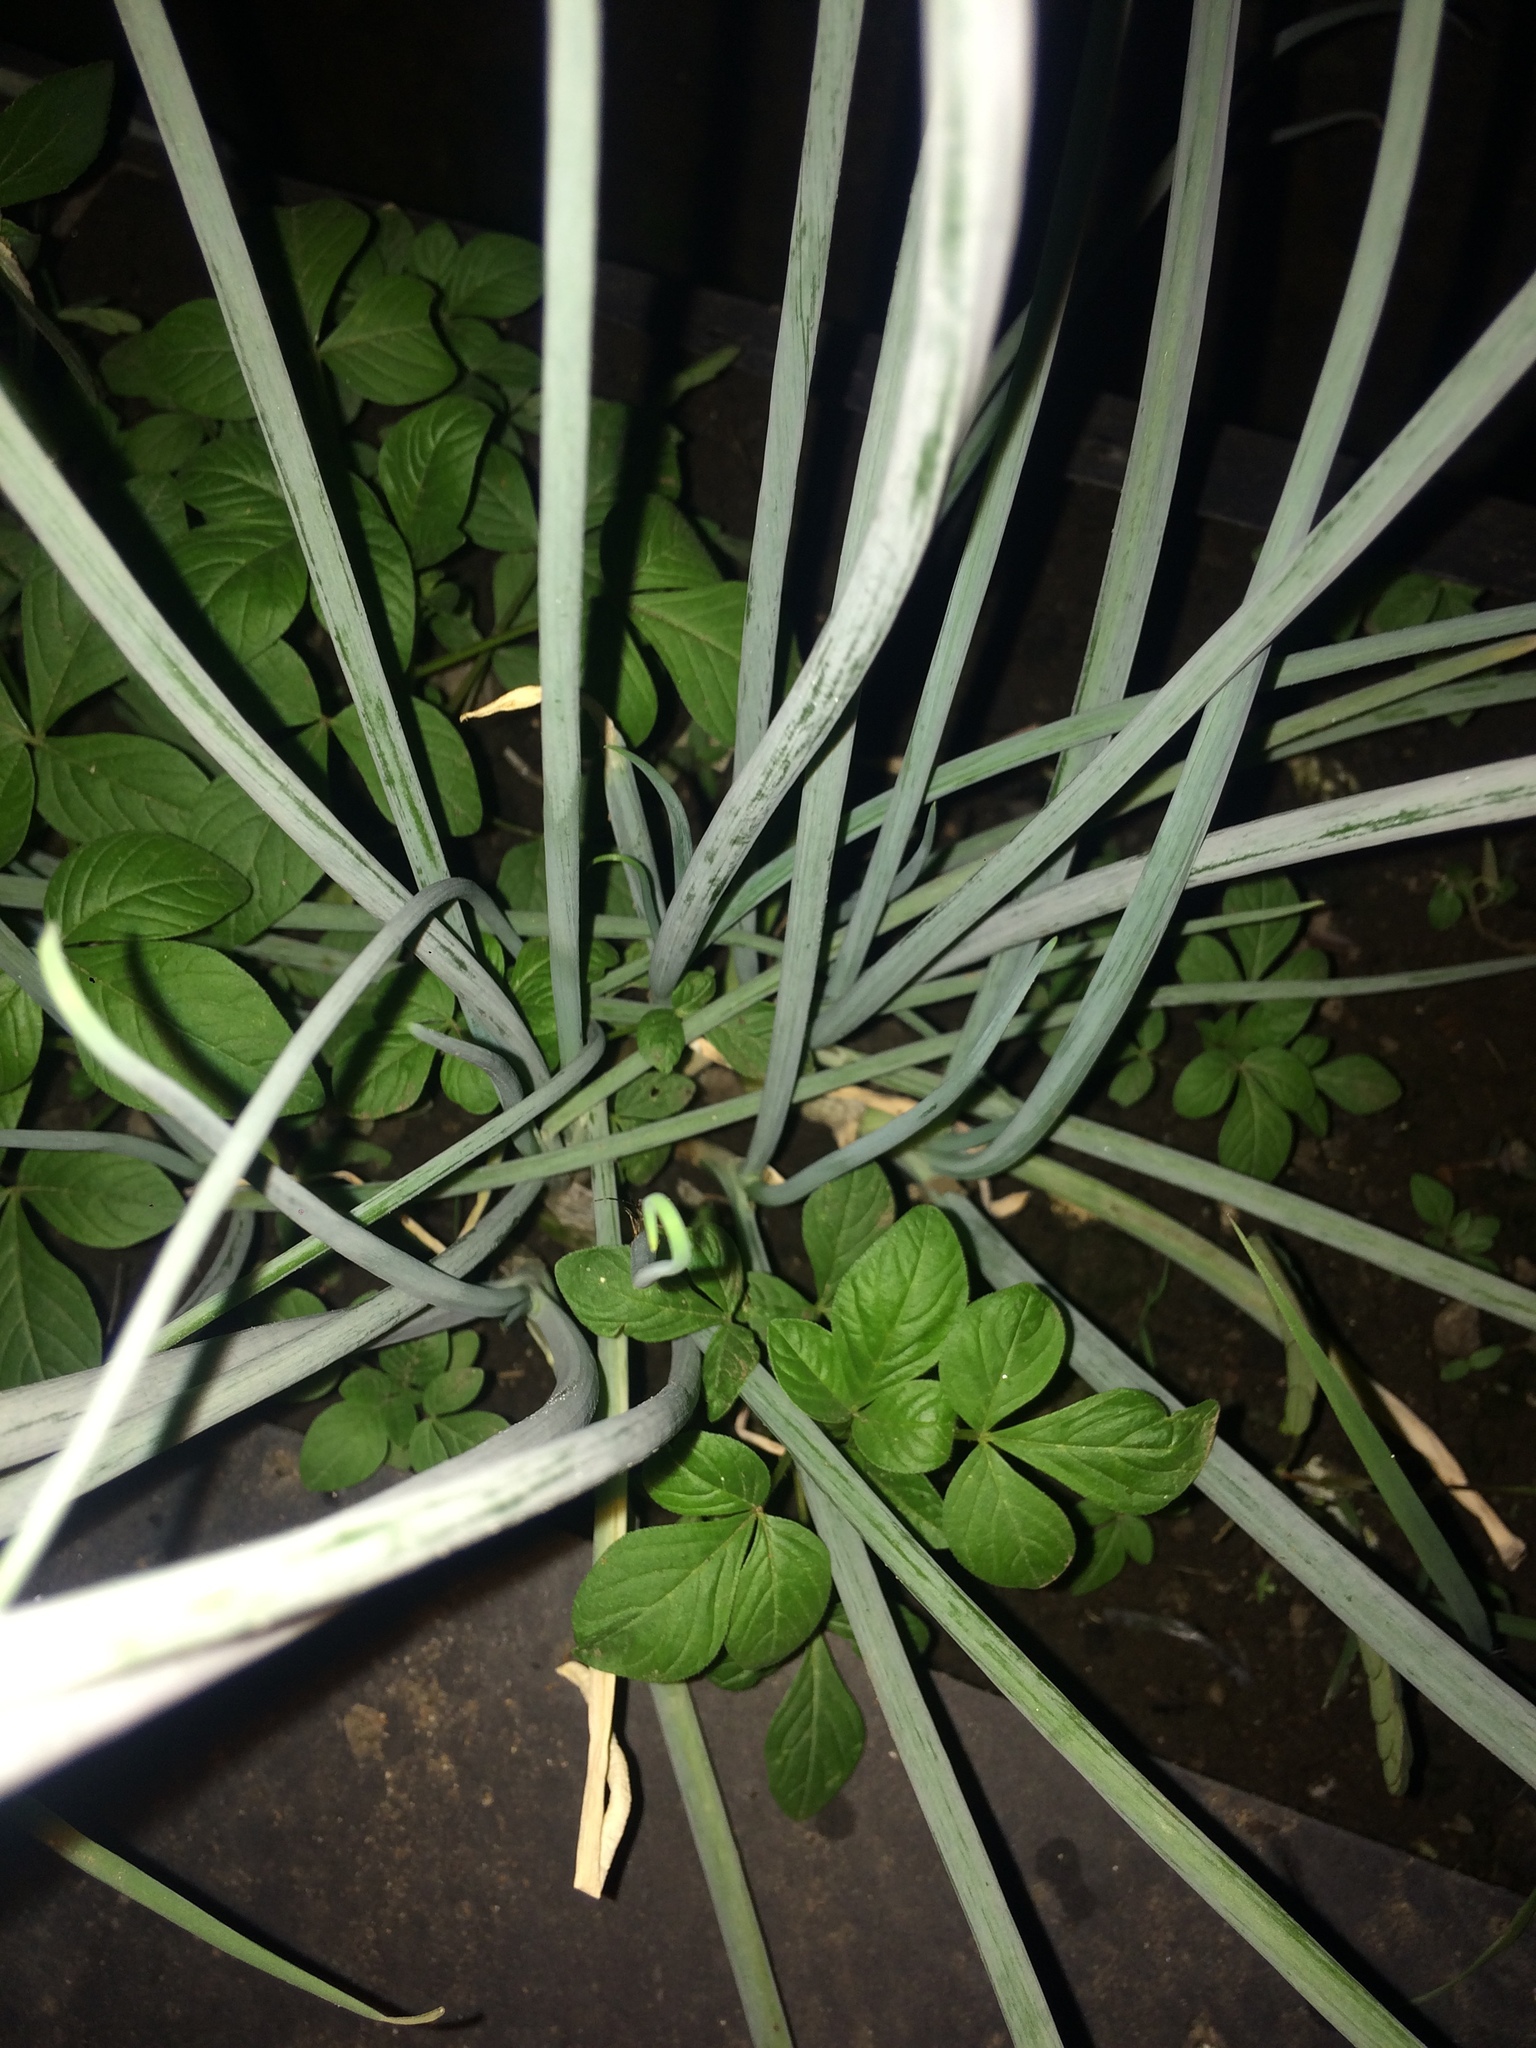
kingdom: Plantae
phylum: Tracheophyta
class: Liliopsida
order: Asparagales
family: Amaryllidaceae
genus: Allium
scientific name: Allium fistulosum
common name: Welsh onion
